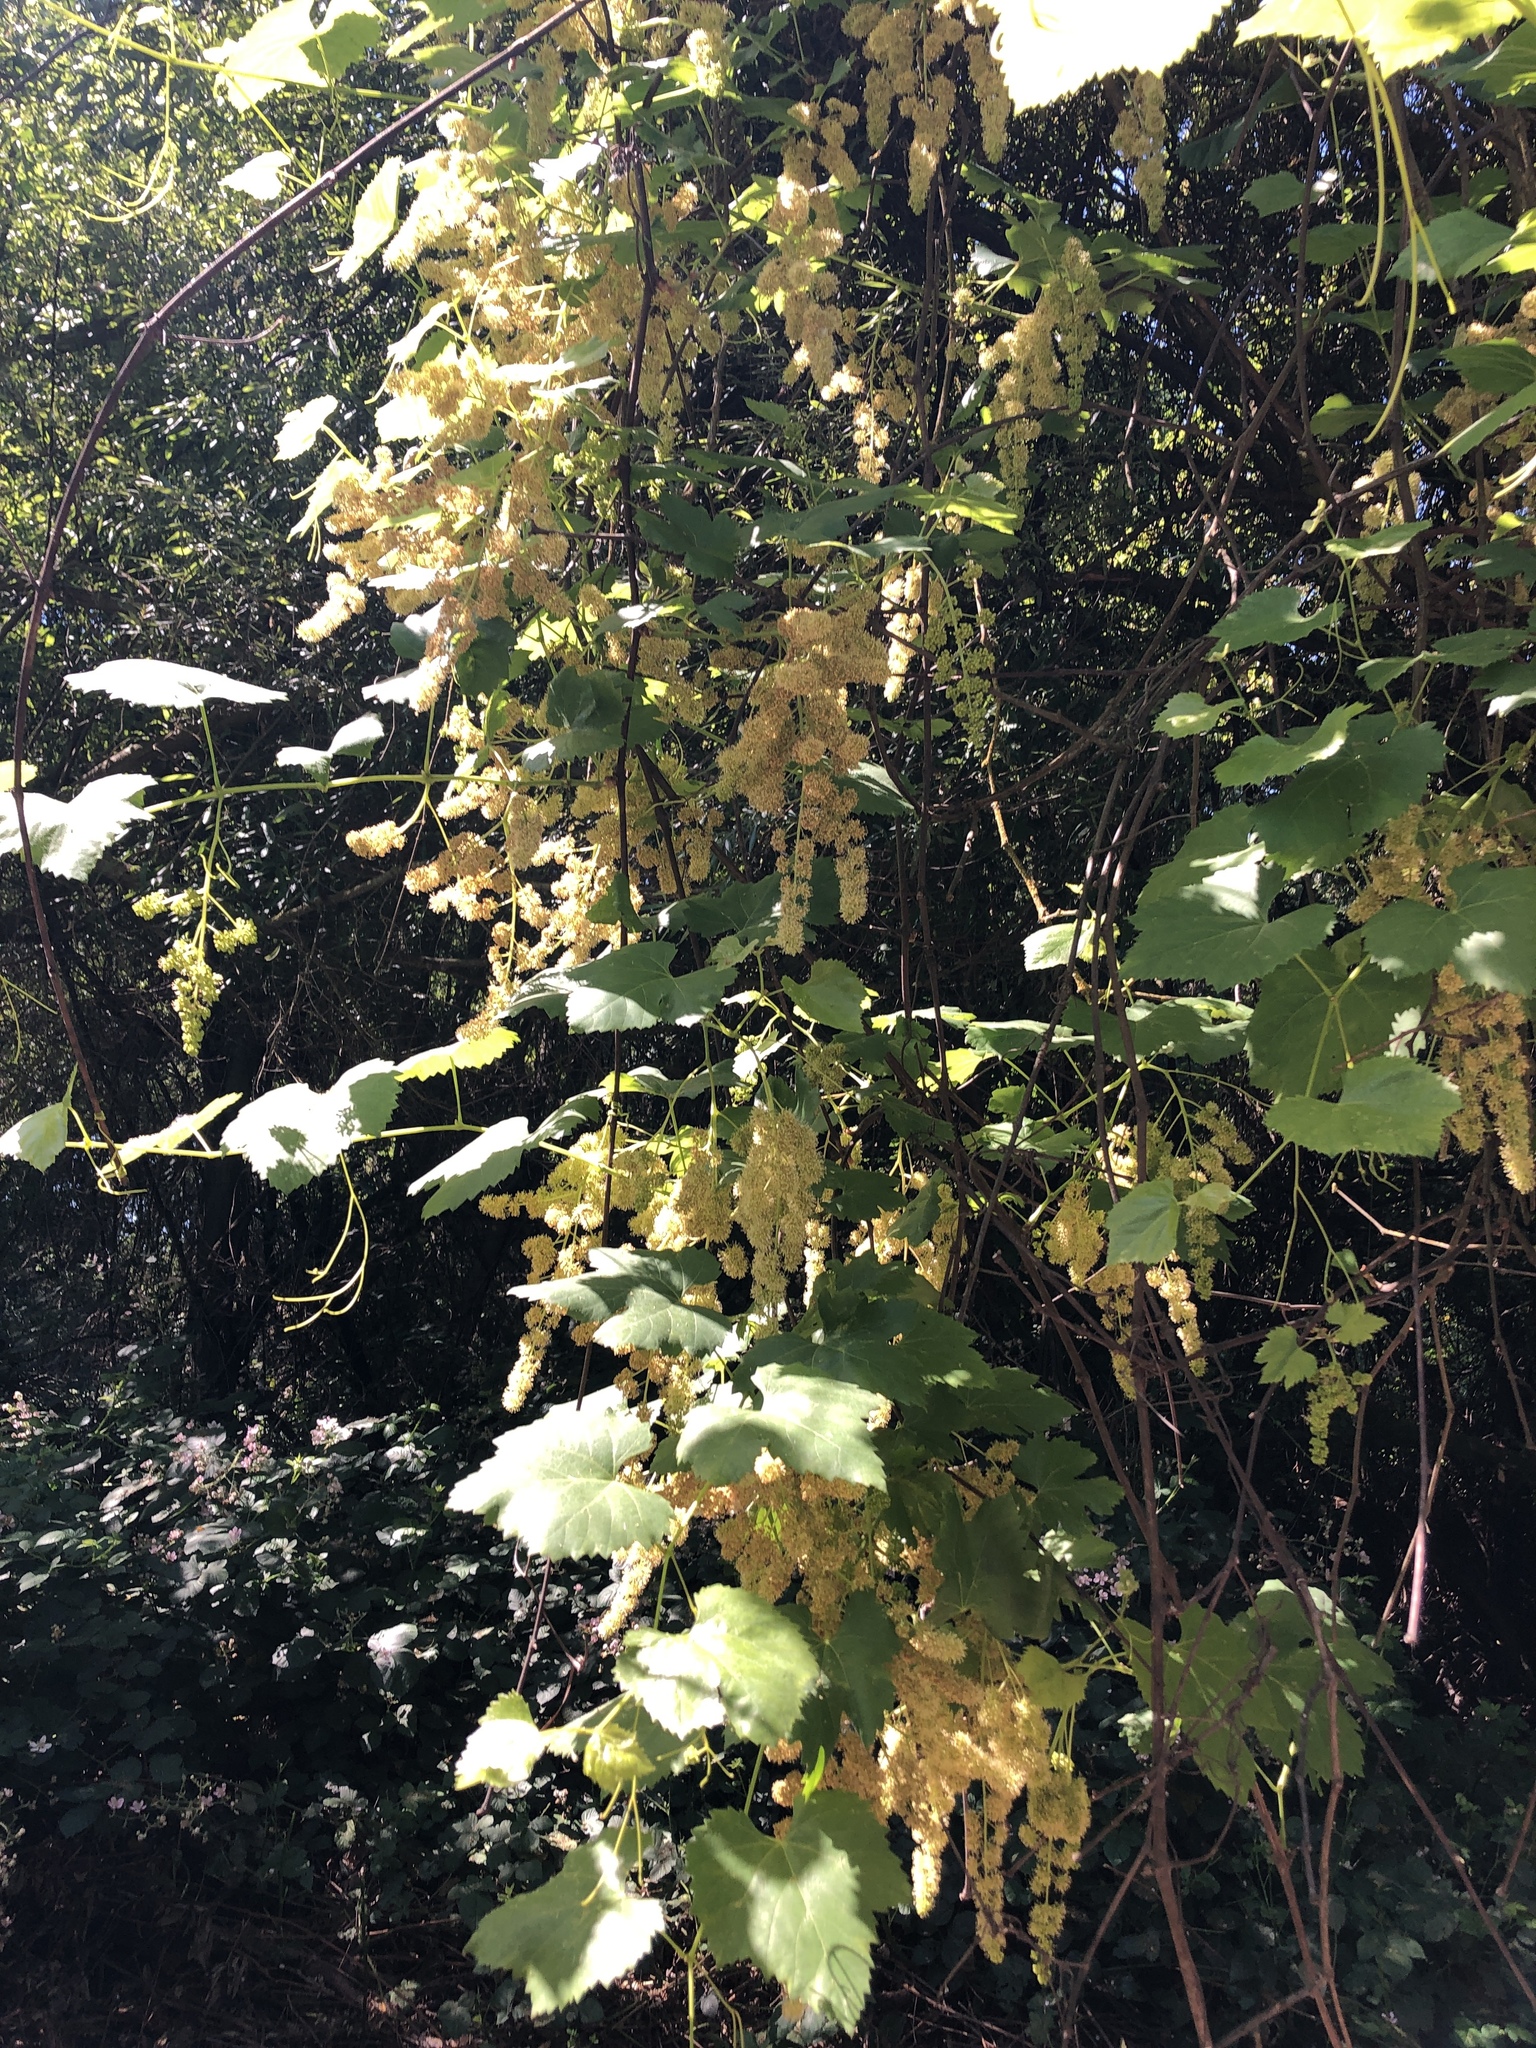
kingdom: Plantae
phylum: Tracheophyta
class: Magnoliopsida
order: Vitales
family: Vitaceae
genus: Vitis
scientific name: Vitis californica
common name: California wild grape
